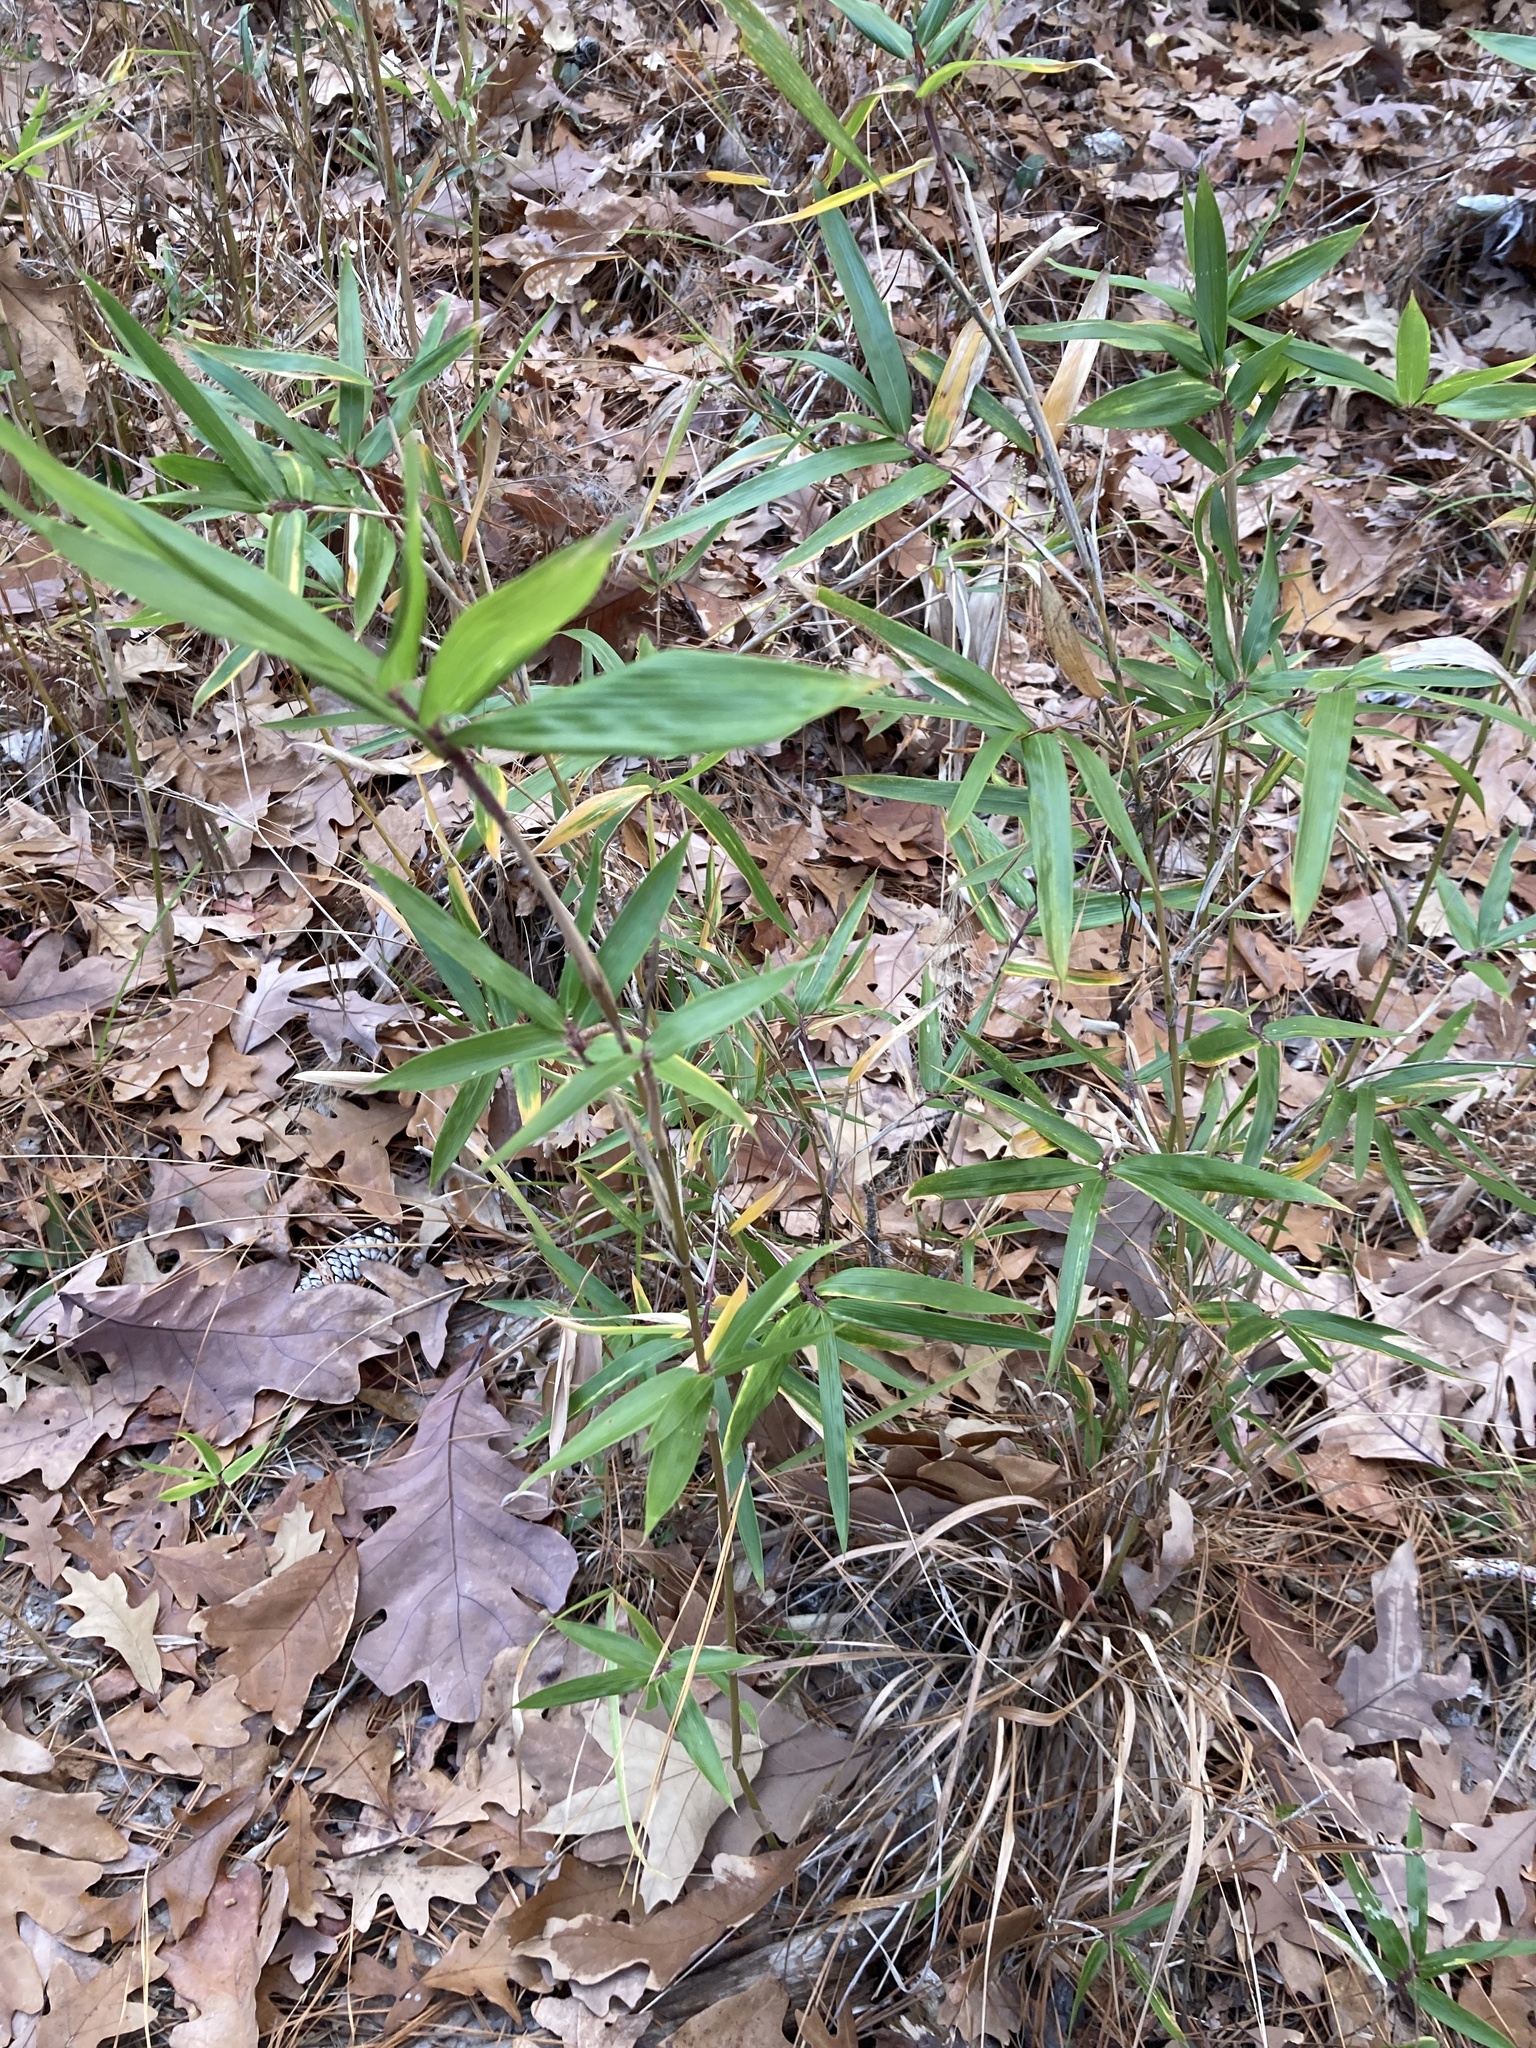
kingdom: Plantae
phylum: Tracheophyta
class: Liliopsida
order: Poales
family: Poaceae
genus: Arundinaria
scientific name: Arundinaria gigantea
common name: Giant cane
